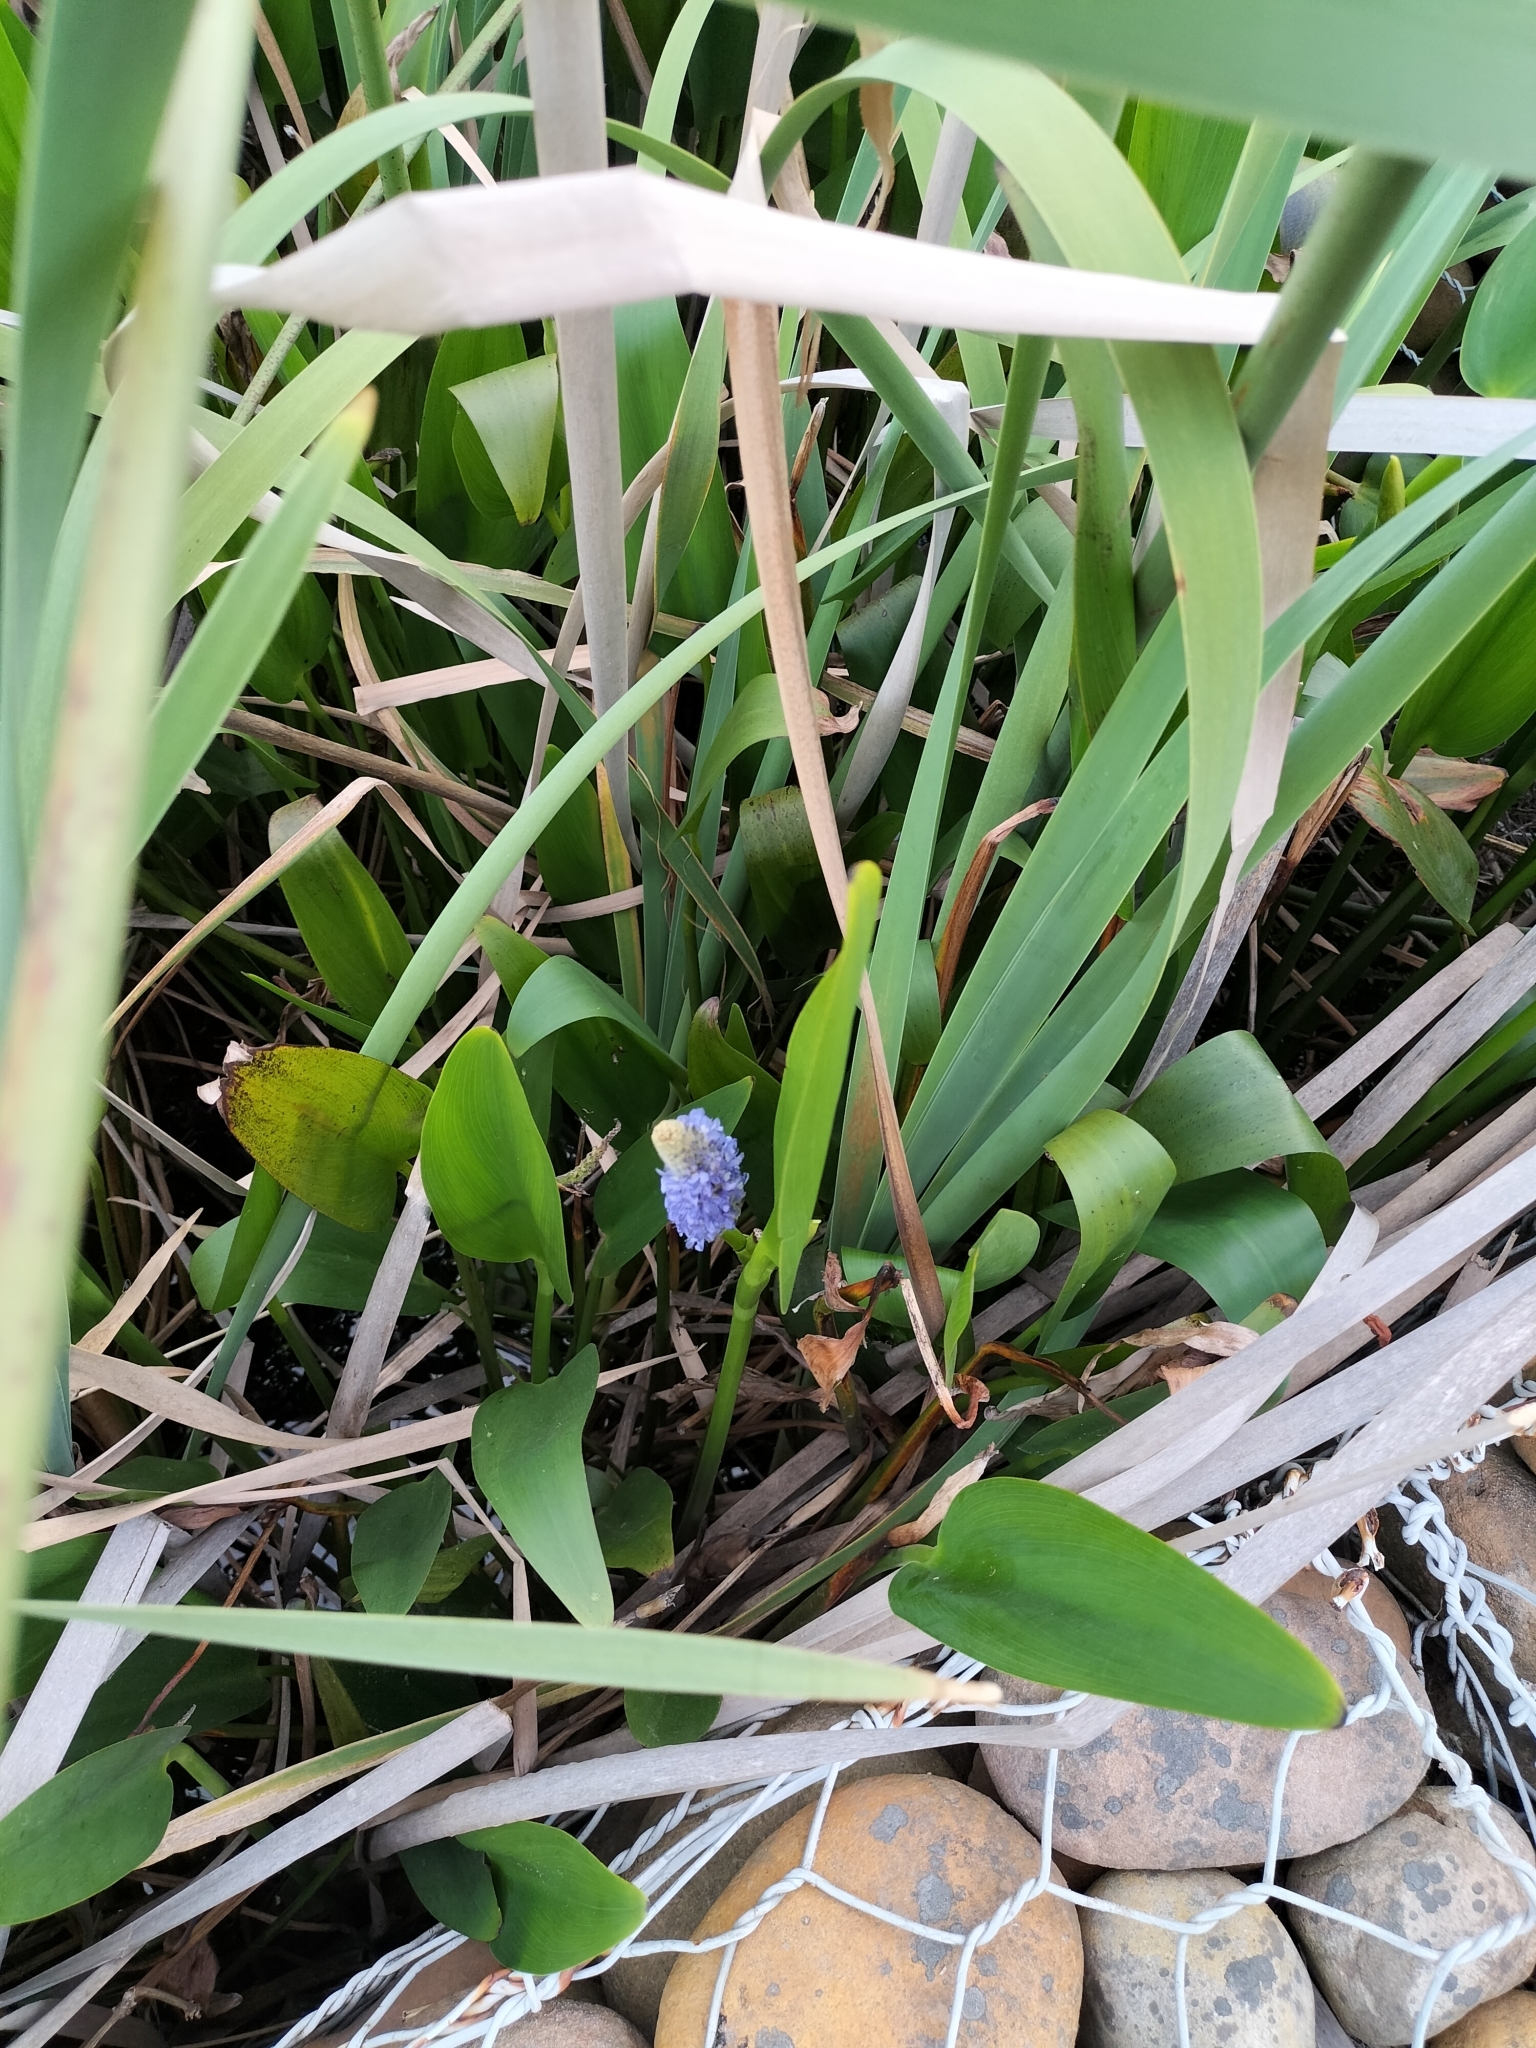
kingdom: Plantae
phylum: Tracheophyta
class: Liliopsida
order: Commelinales
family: Pontederiaceae
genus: Pontederia
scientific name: Pontederia cordata
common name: Pickerelweed
